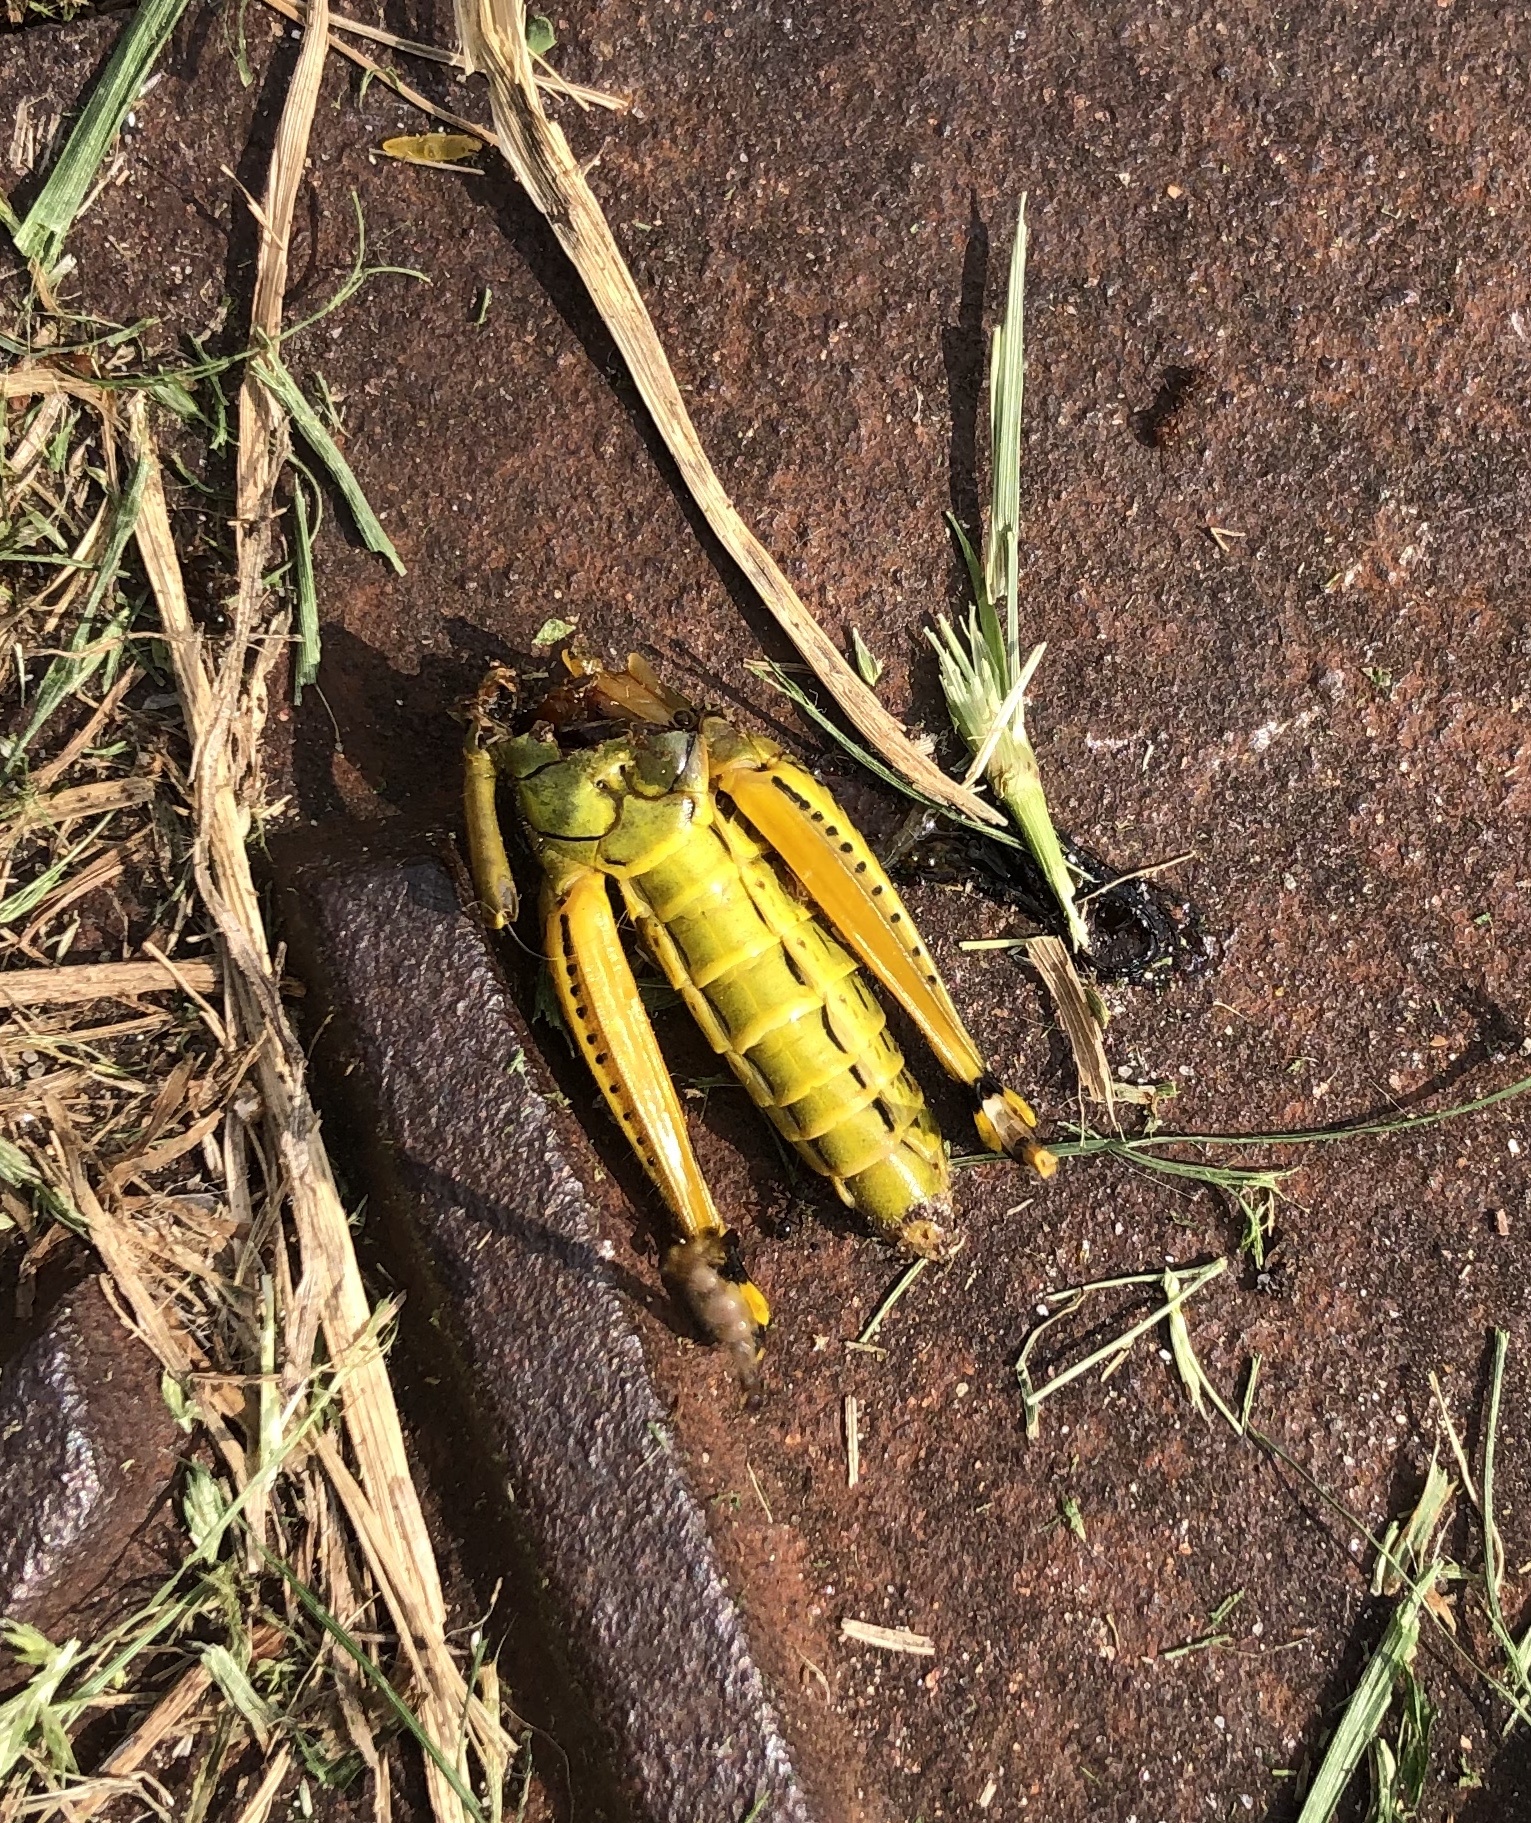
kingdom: Animalia
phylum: Arthropoda
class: Insecta
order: Orthoptera
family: Acrididae
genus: Melanoplus
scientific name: Melanoplus differentialis
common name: Differential grasshopper
